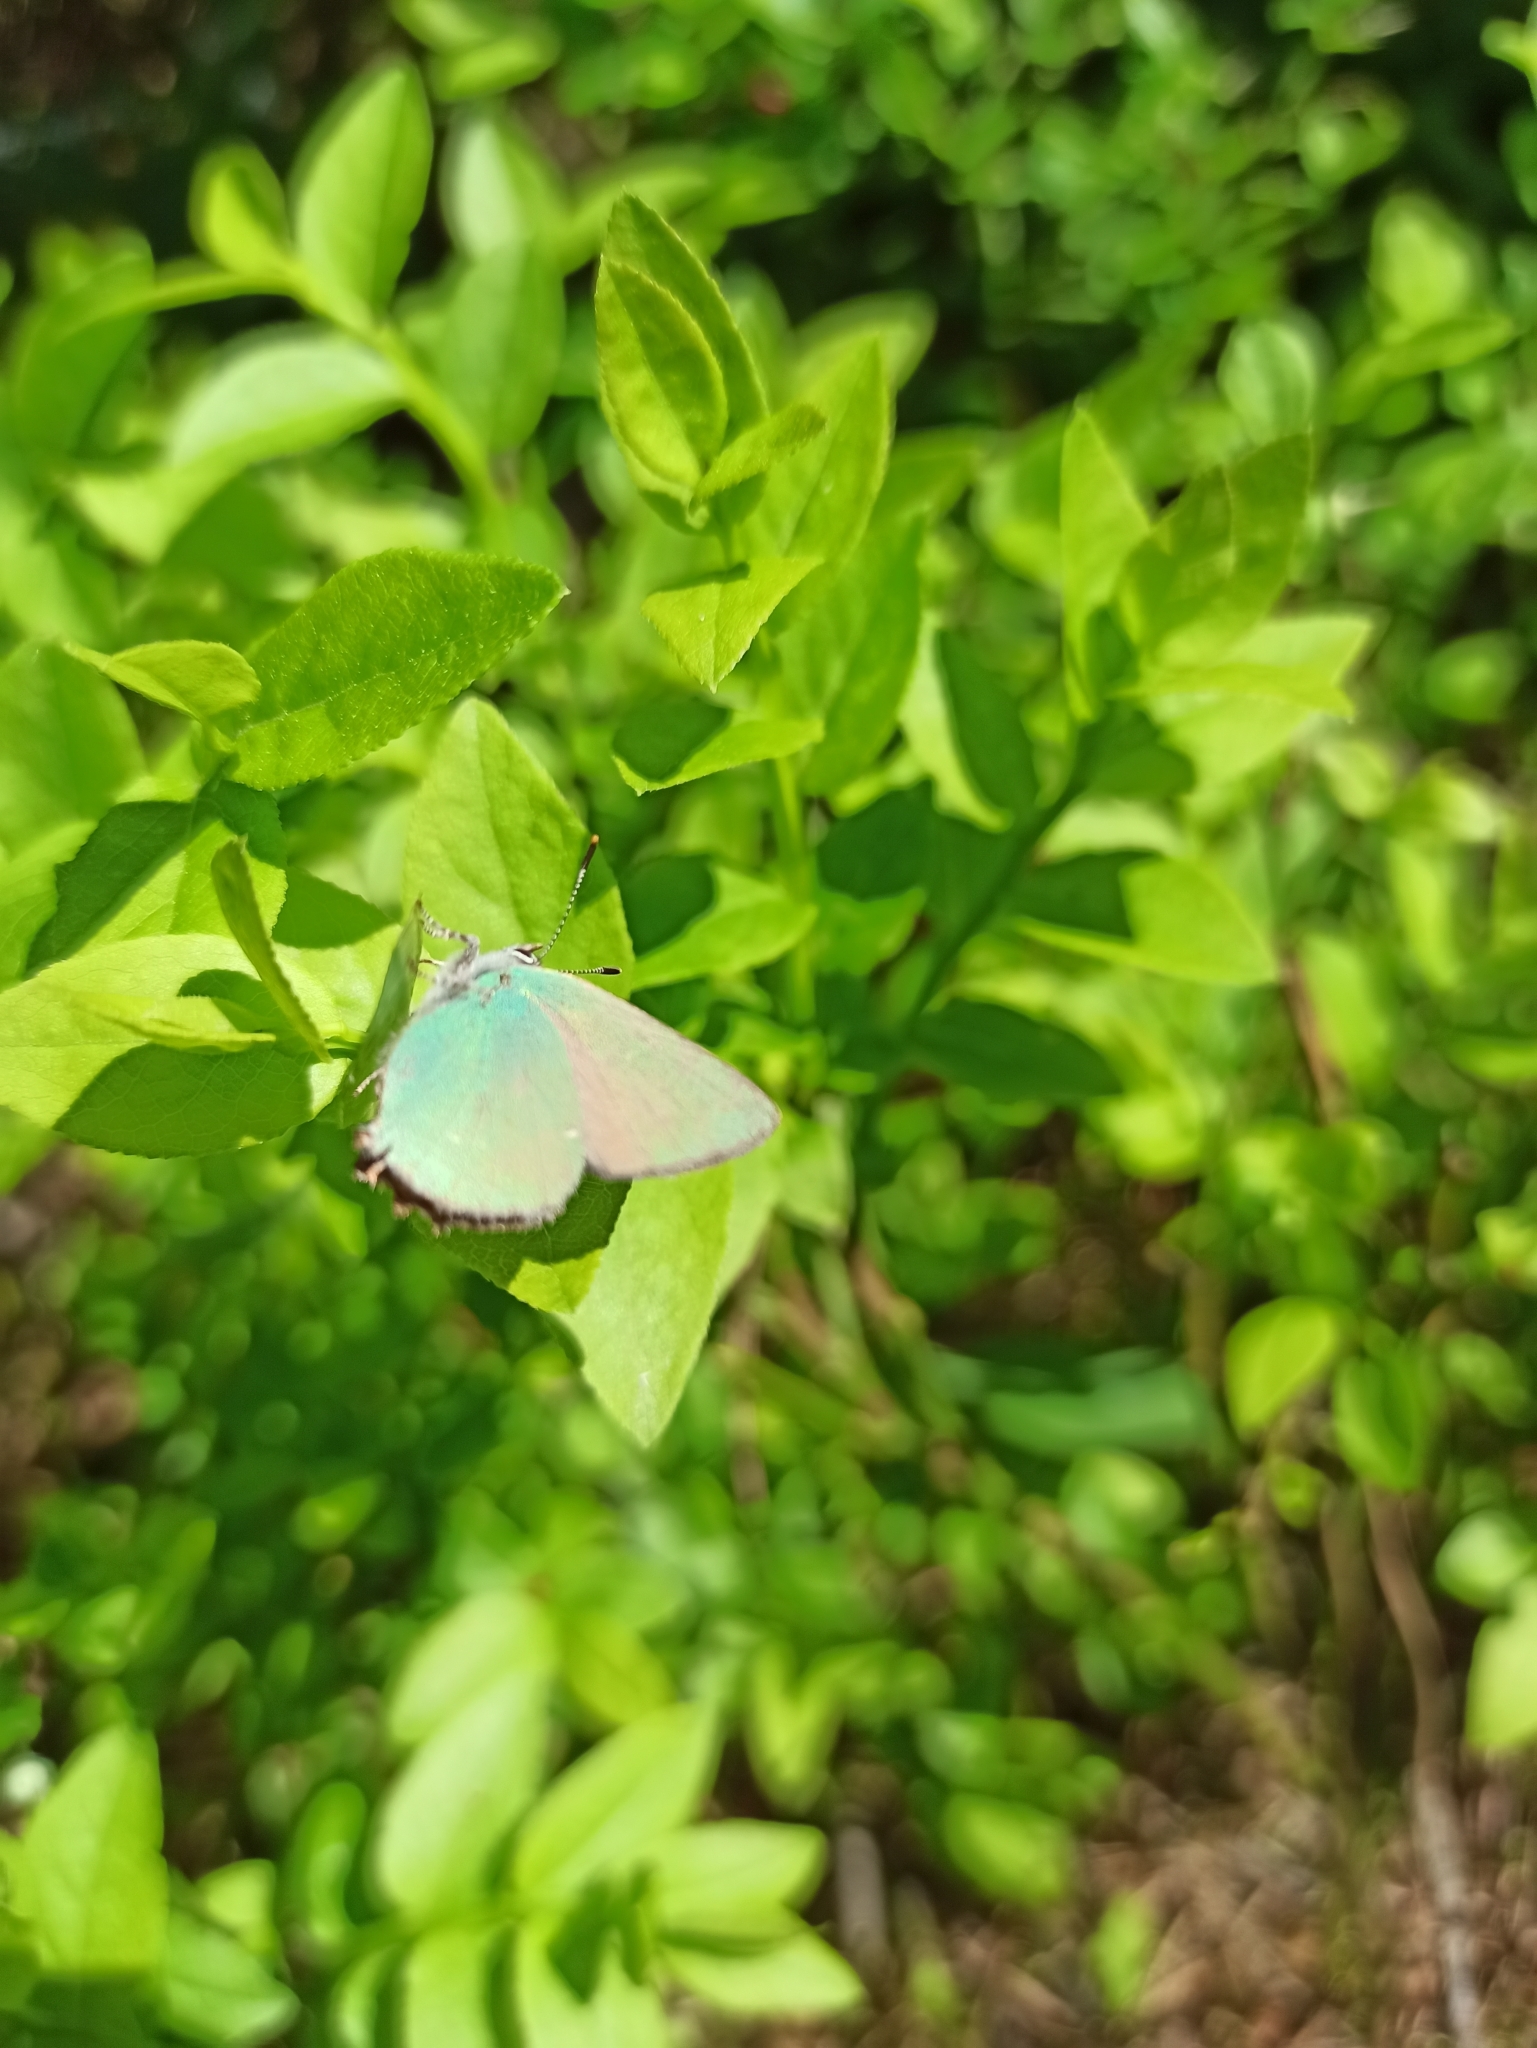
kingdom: Animalia
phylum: Arthropoda
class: Insecta
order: Lepidoptera
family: Lycaenidae
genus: Callophrys
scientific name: Callophrys rubi
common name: Green hairstreak
